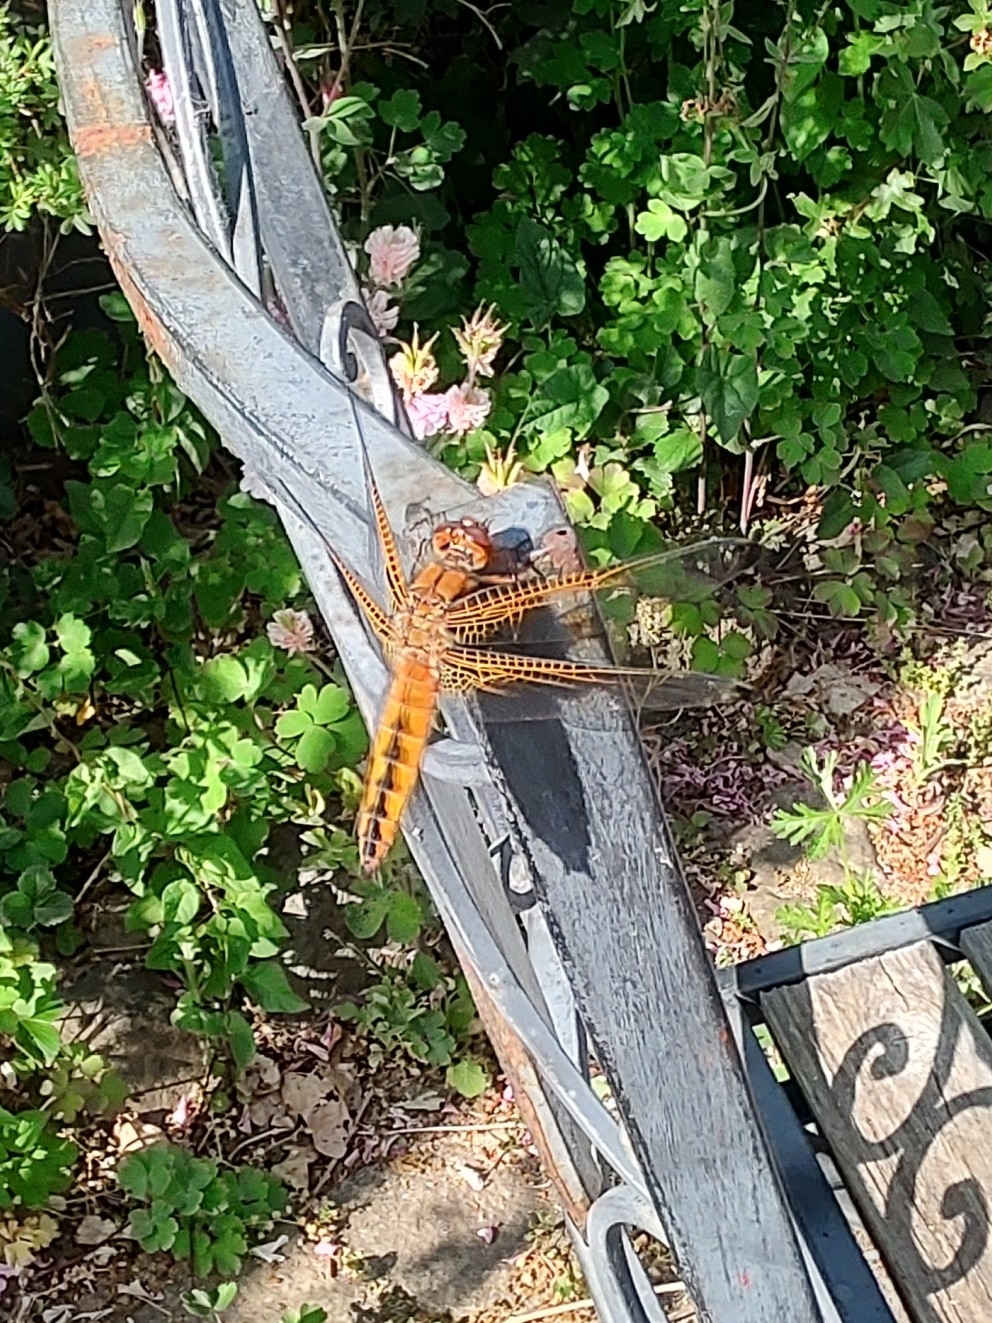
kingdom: Animalia
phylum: Arthropoda
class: Insecta
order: Odonata
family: Libellulidae
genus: Libellula
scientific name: Libellula fulva
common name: Blue chaser
